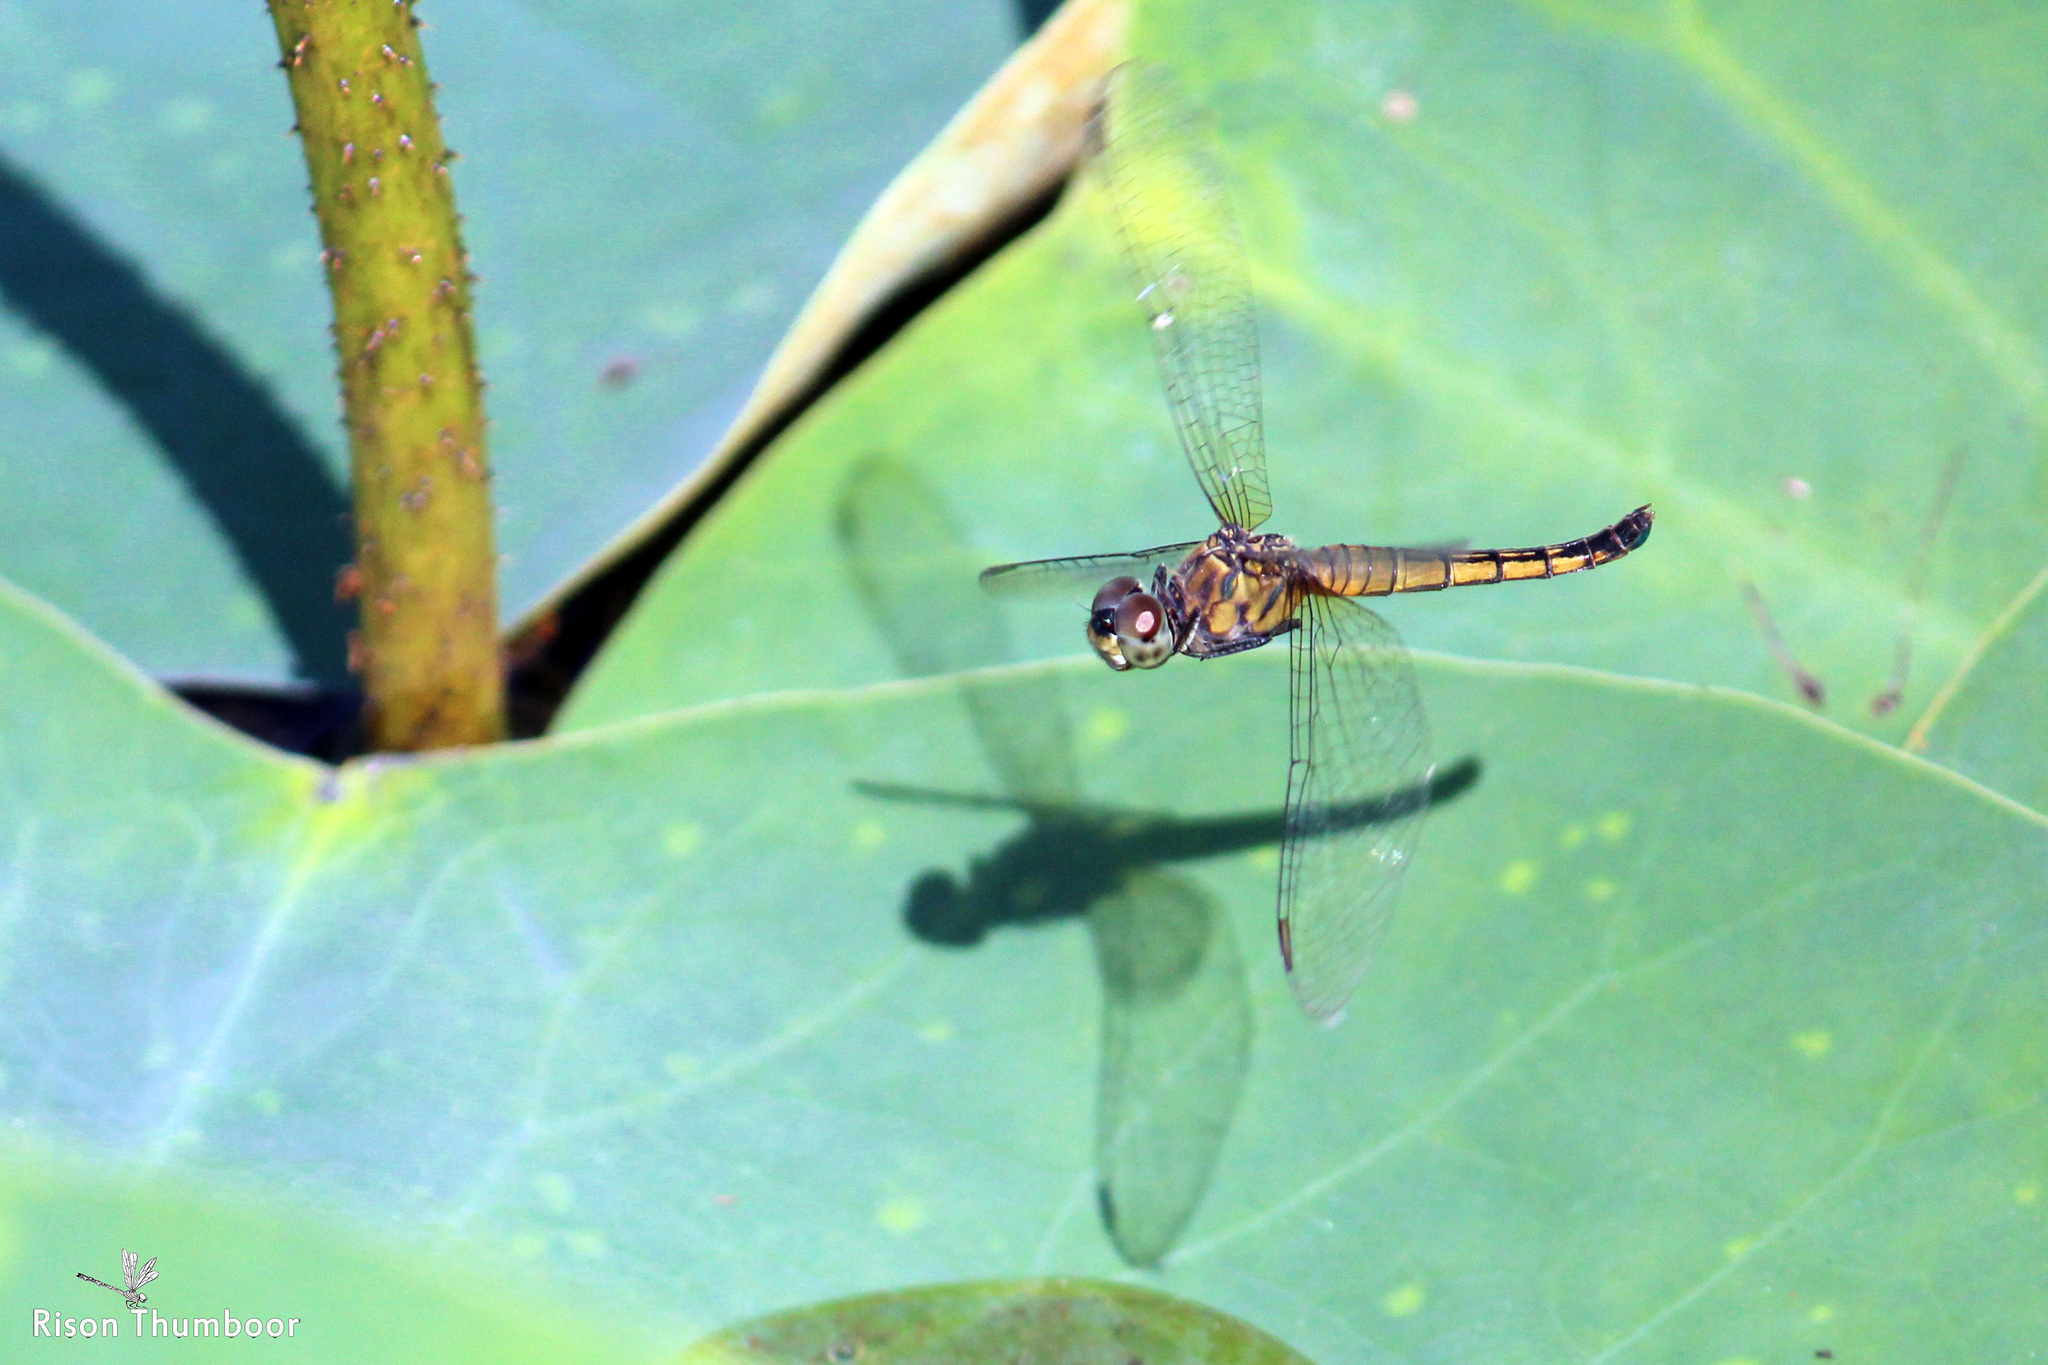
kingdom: Animalia
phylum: Arthropoda
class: Insecta
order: Odonata
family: Libellulidae
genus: Brachydiplax
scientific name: Brachydiplax chalybea
